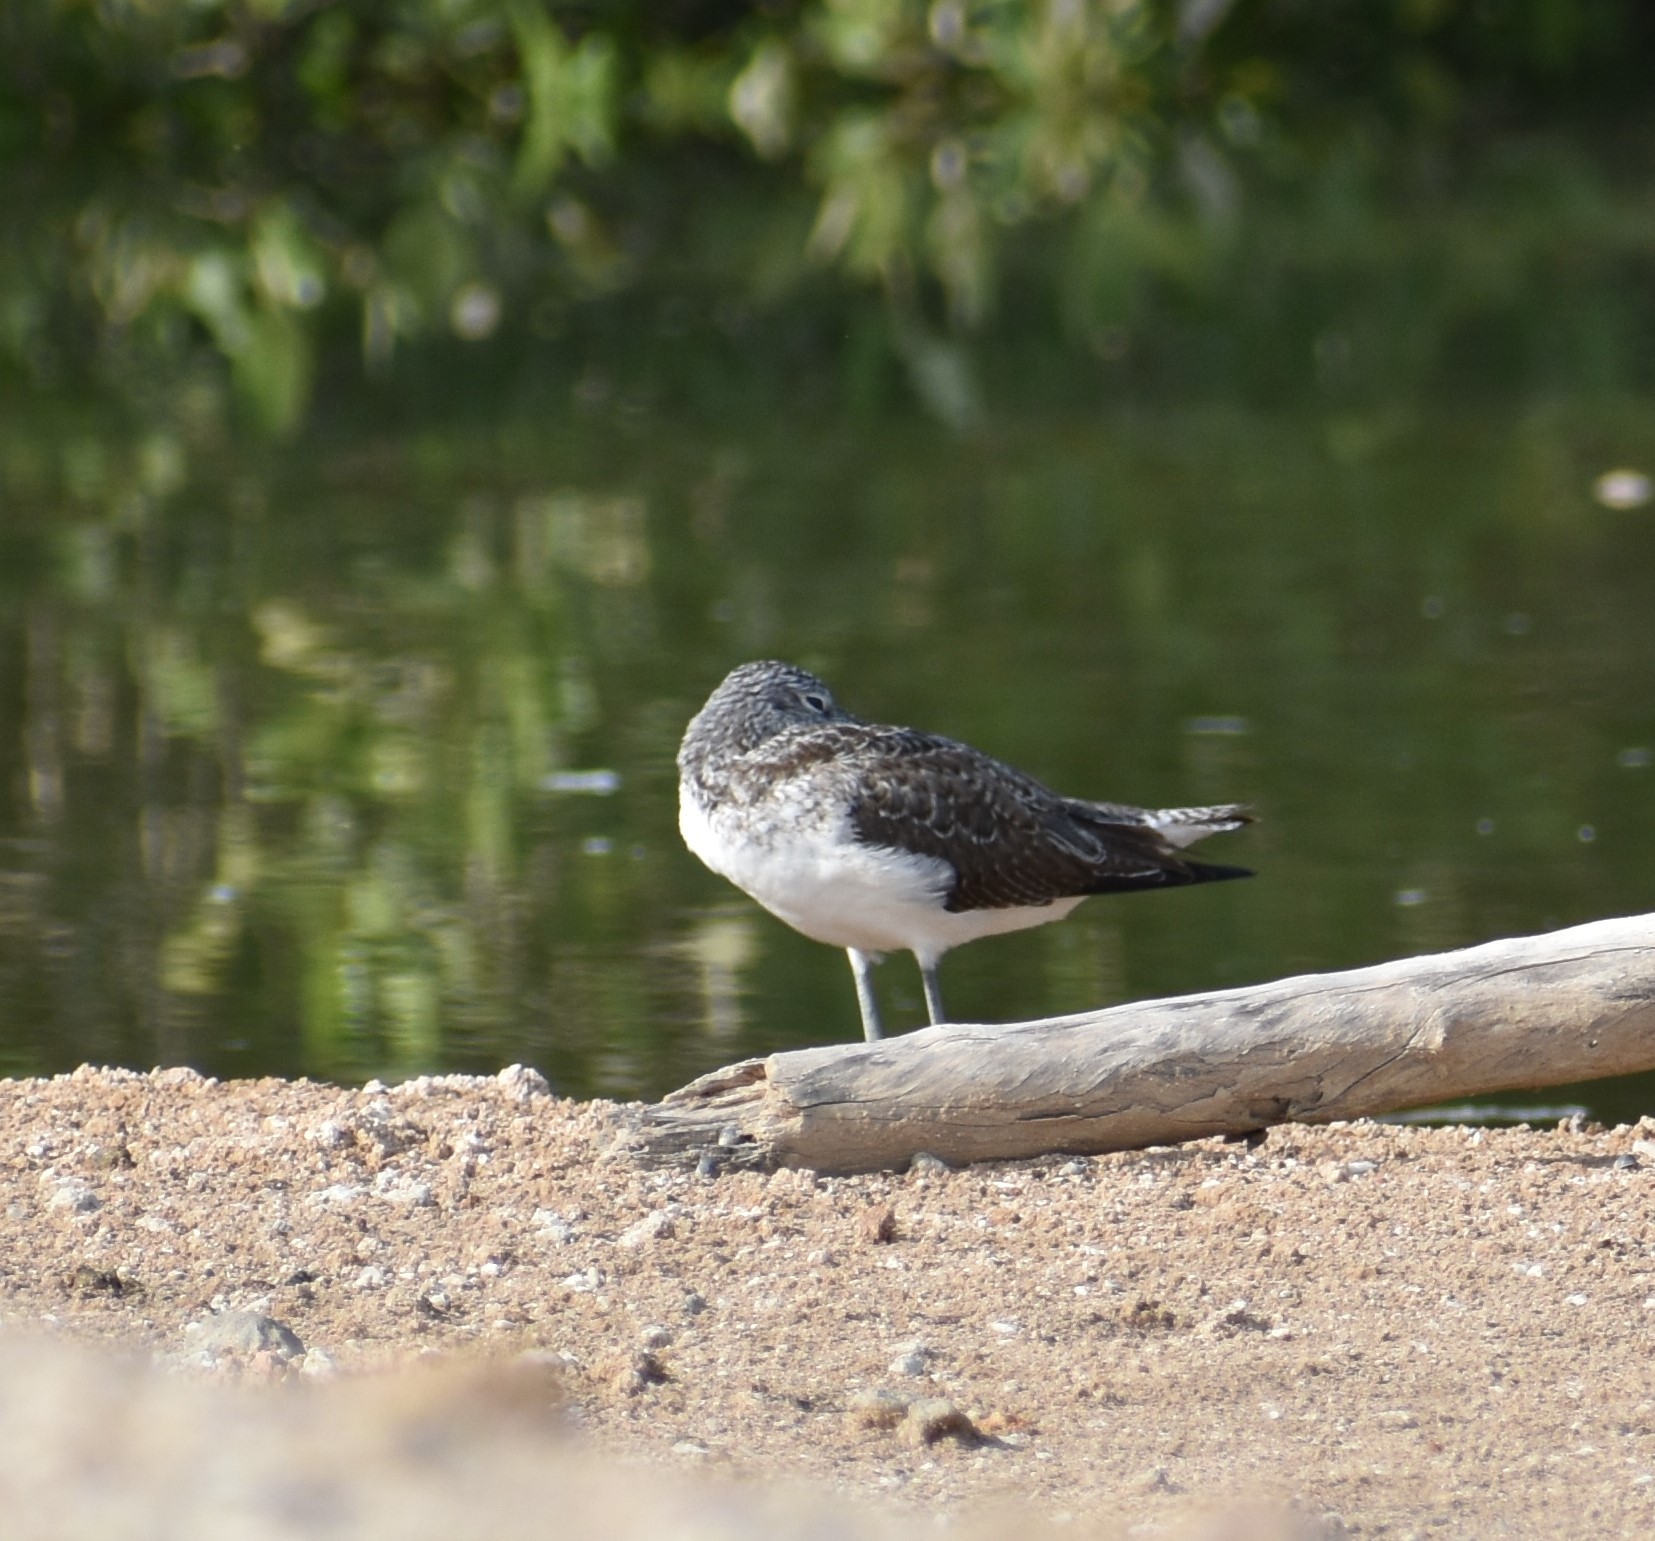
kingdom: Animalia
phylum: Chordata
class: Aves
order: Charadriiformes
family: Scolopacidae
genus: Tringa
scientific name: Tringa nebularia
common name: Common greenshank
